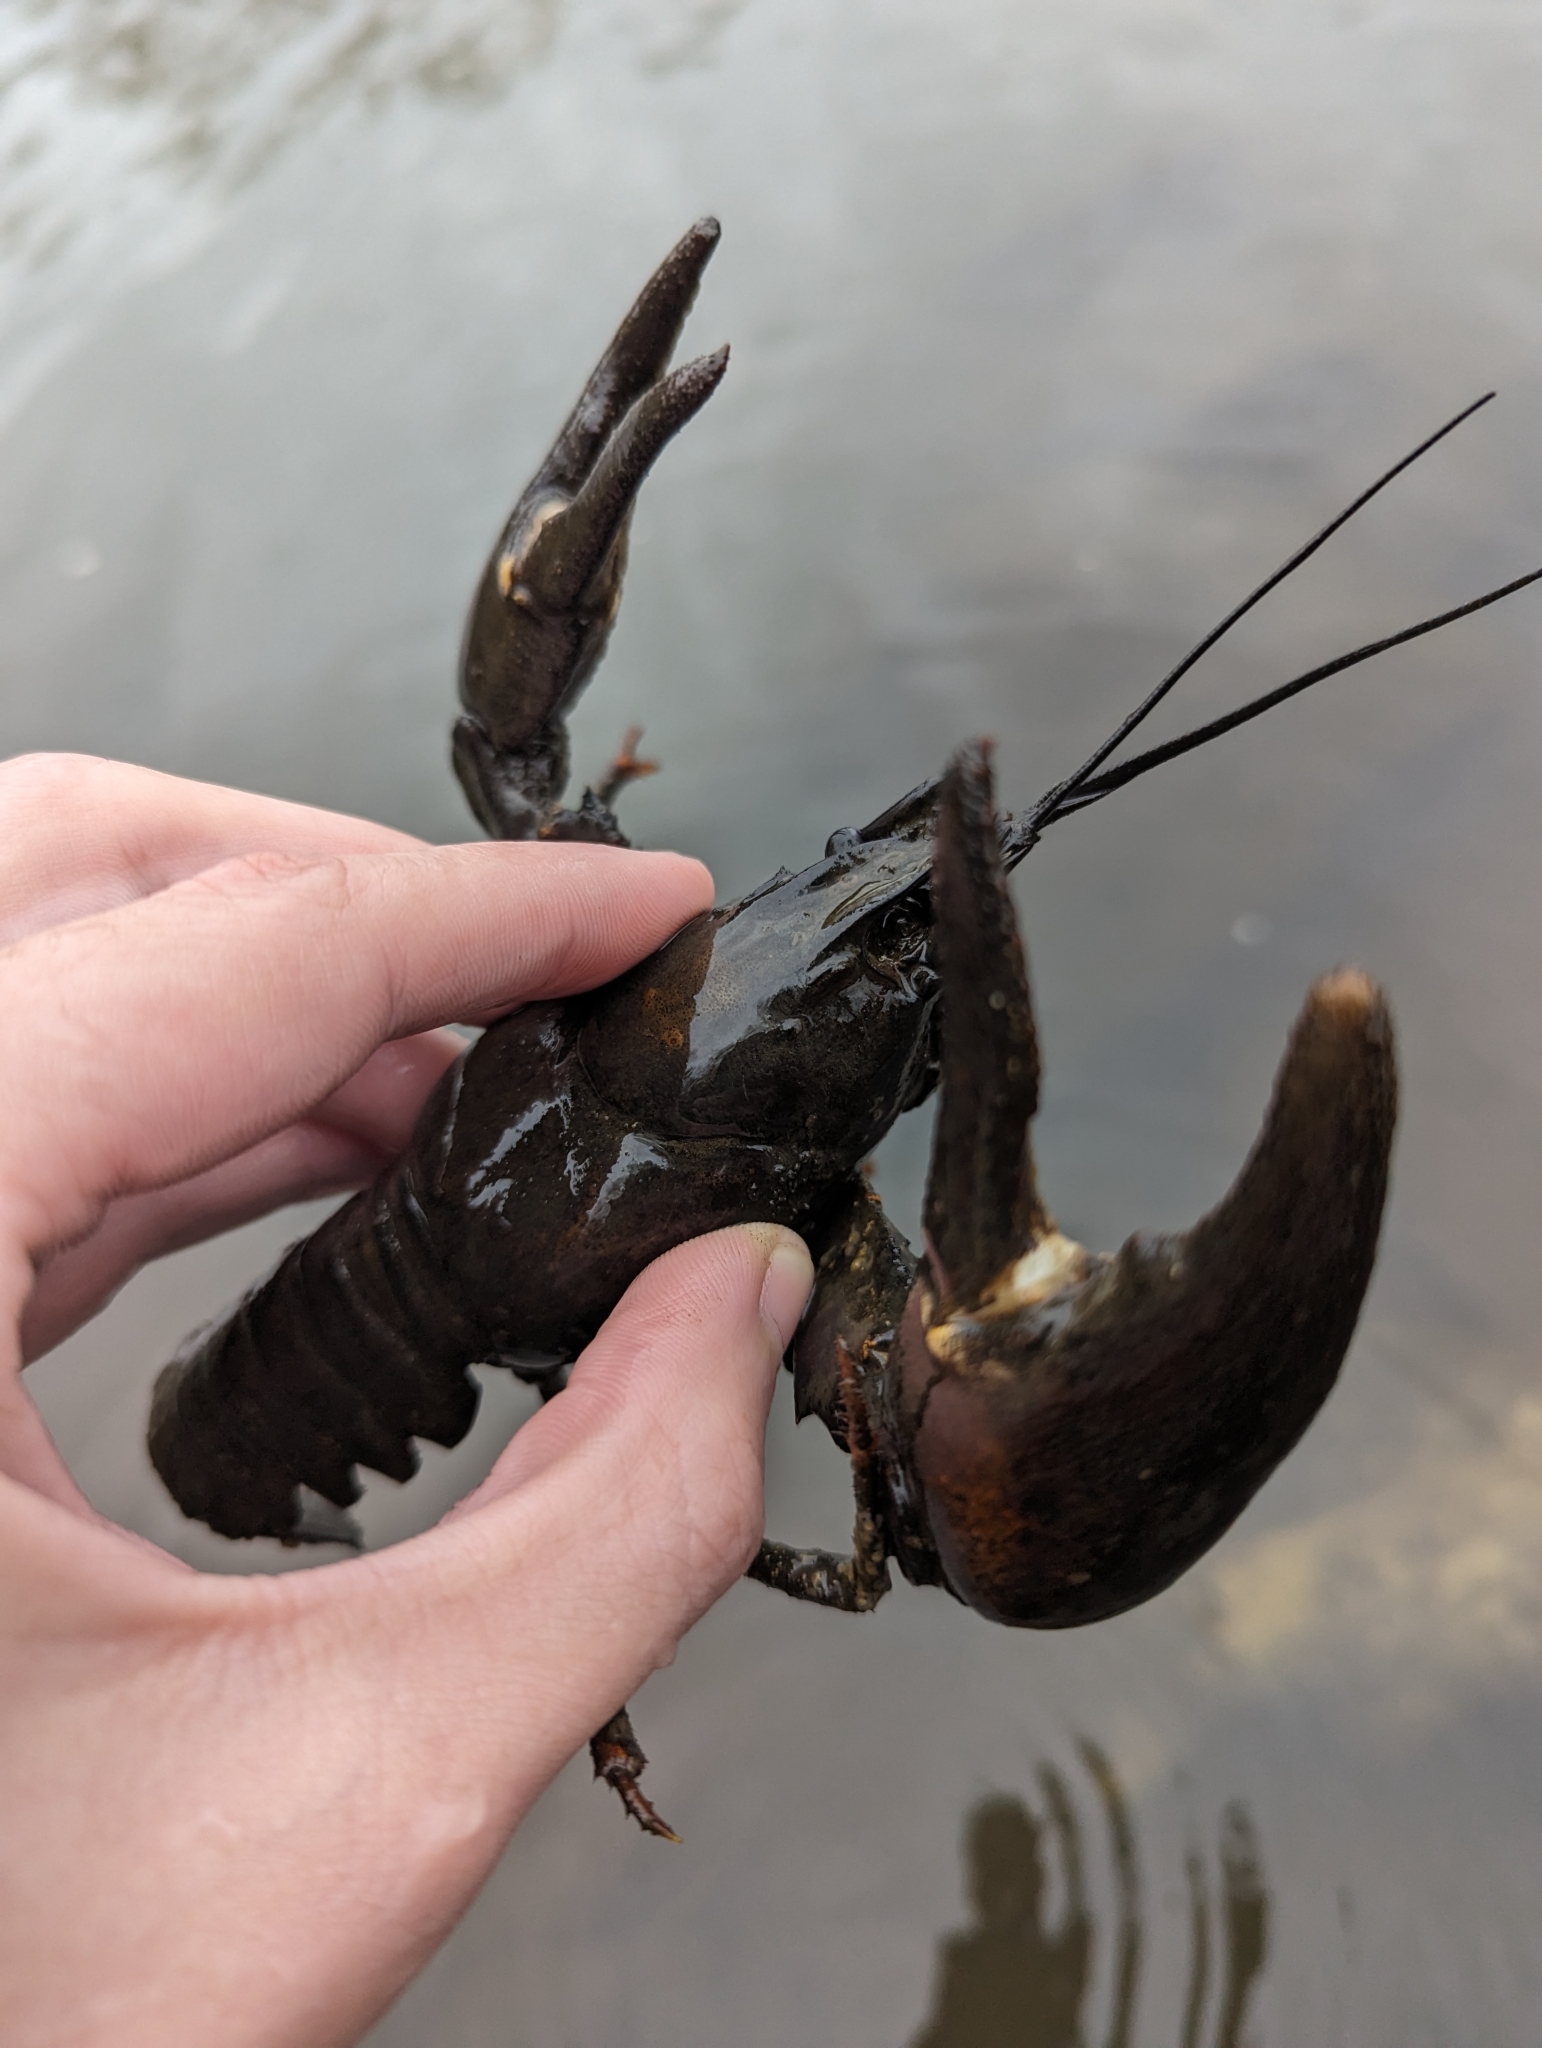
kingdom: Animalia
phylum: Arthropoda
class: Malacostraca
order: Decapoda
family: Astacidae
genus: Pacifastacus
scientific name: Pacifastacus leniusculus
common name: Signal crayfish
